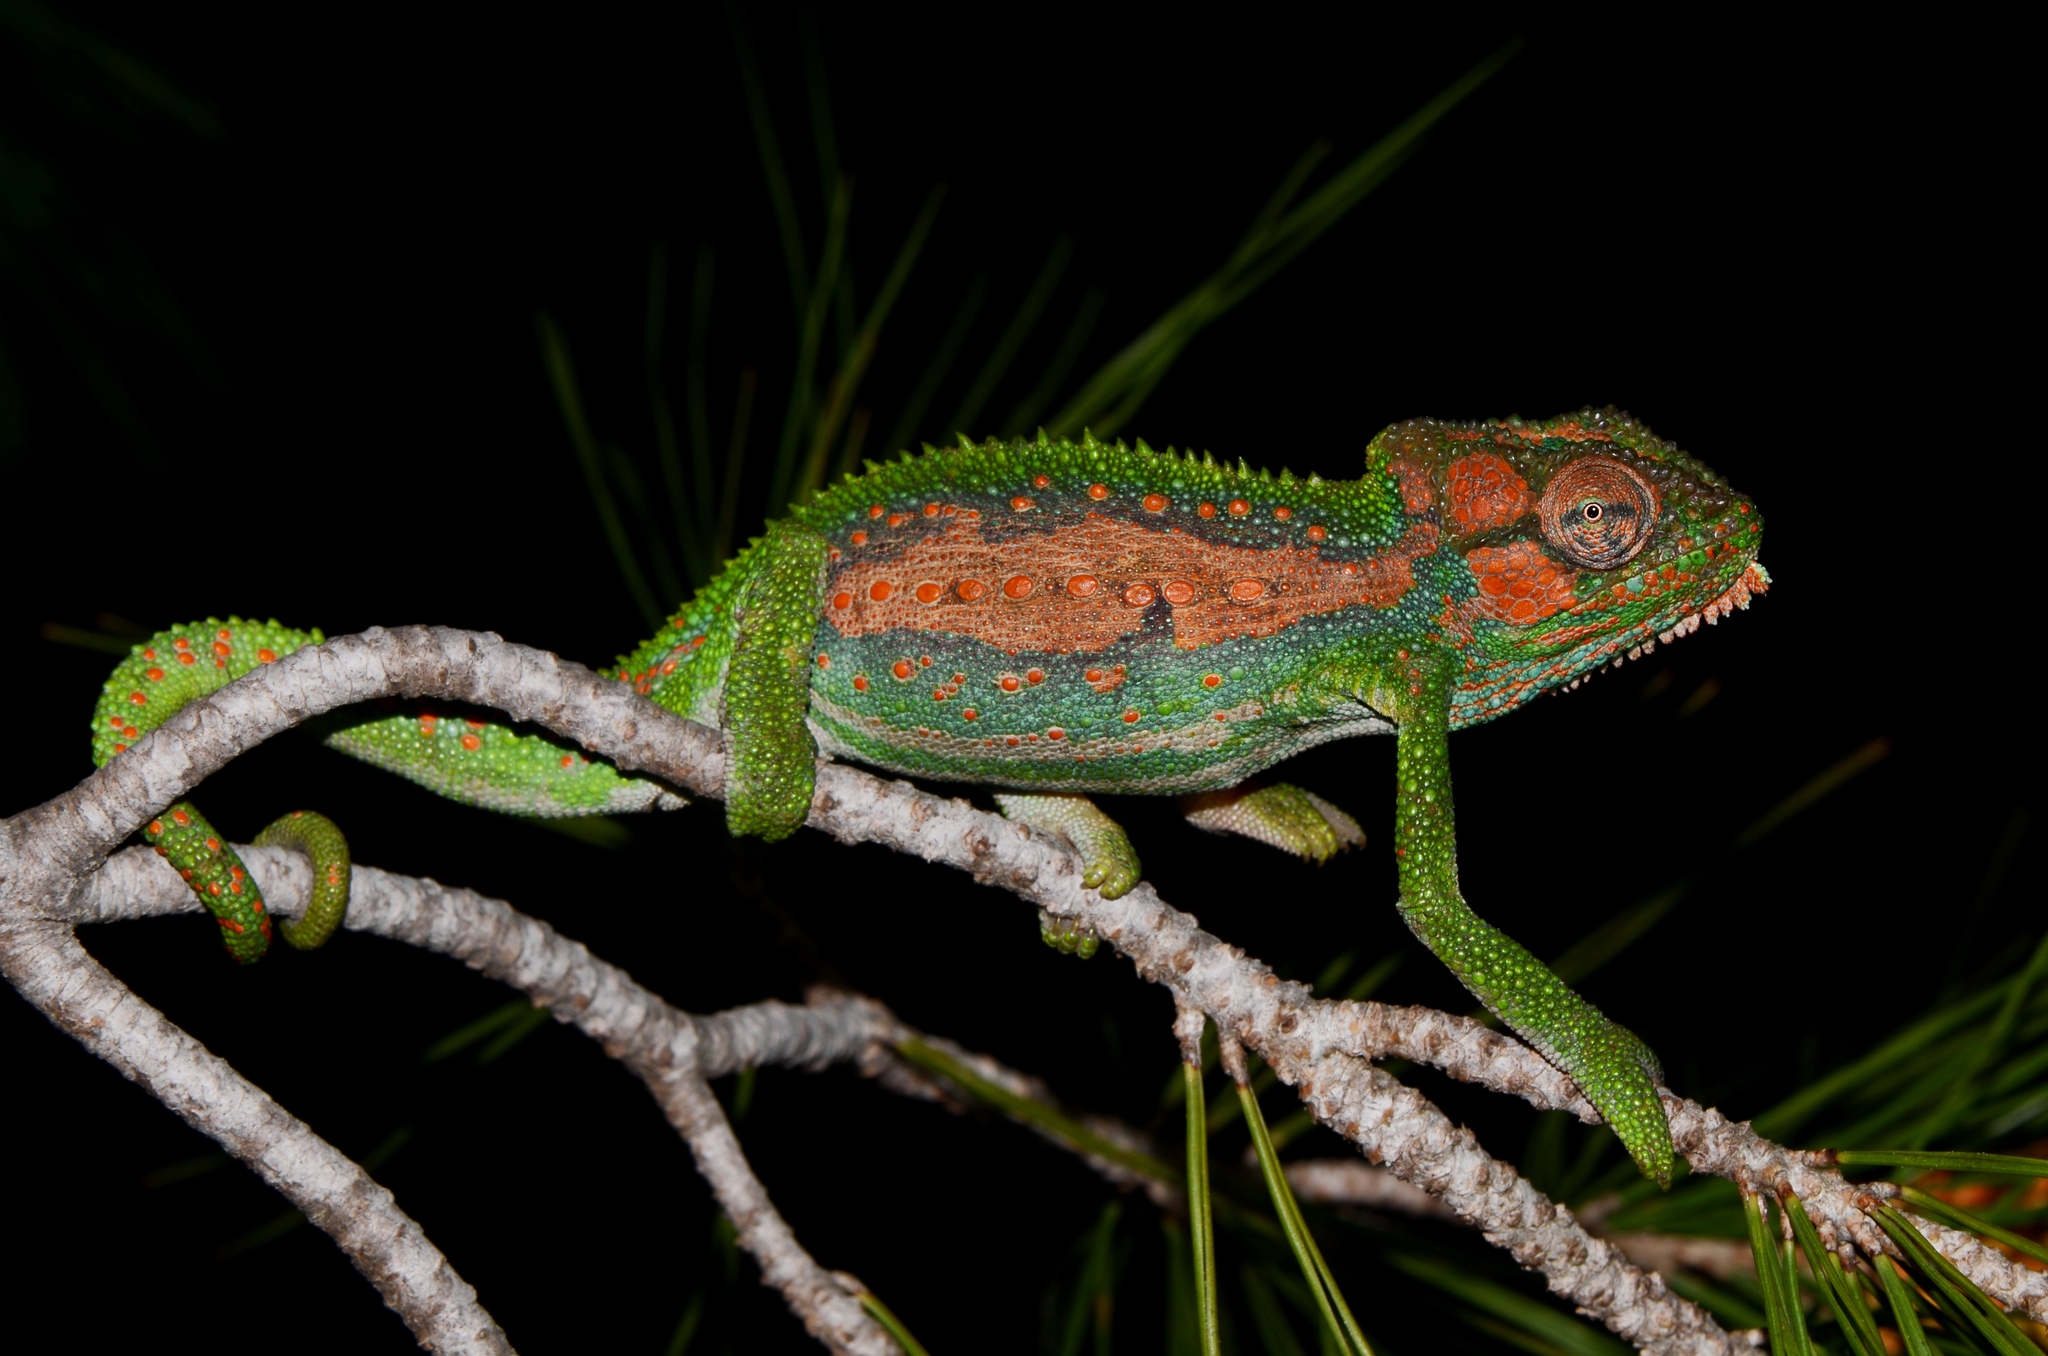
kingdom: Animalia
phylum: Chordata
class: Squamata
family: Chamaeleonidae
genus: Bradypodion
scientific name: Bradypodion pumilum
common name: Cape dwarf chameleon
